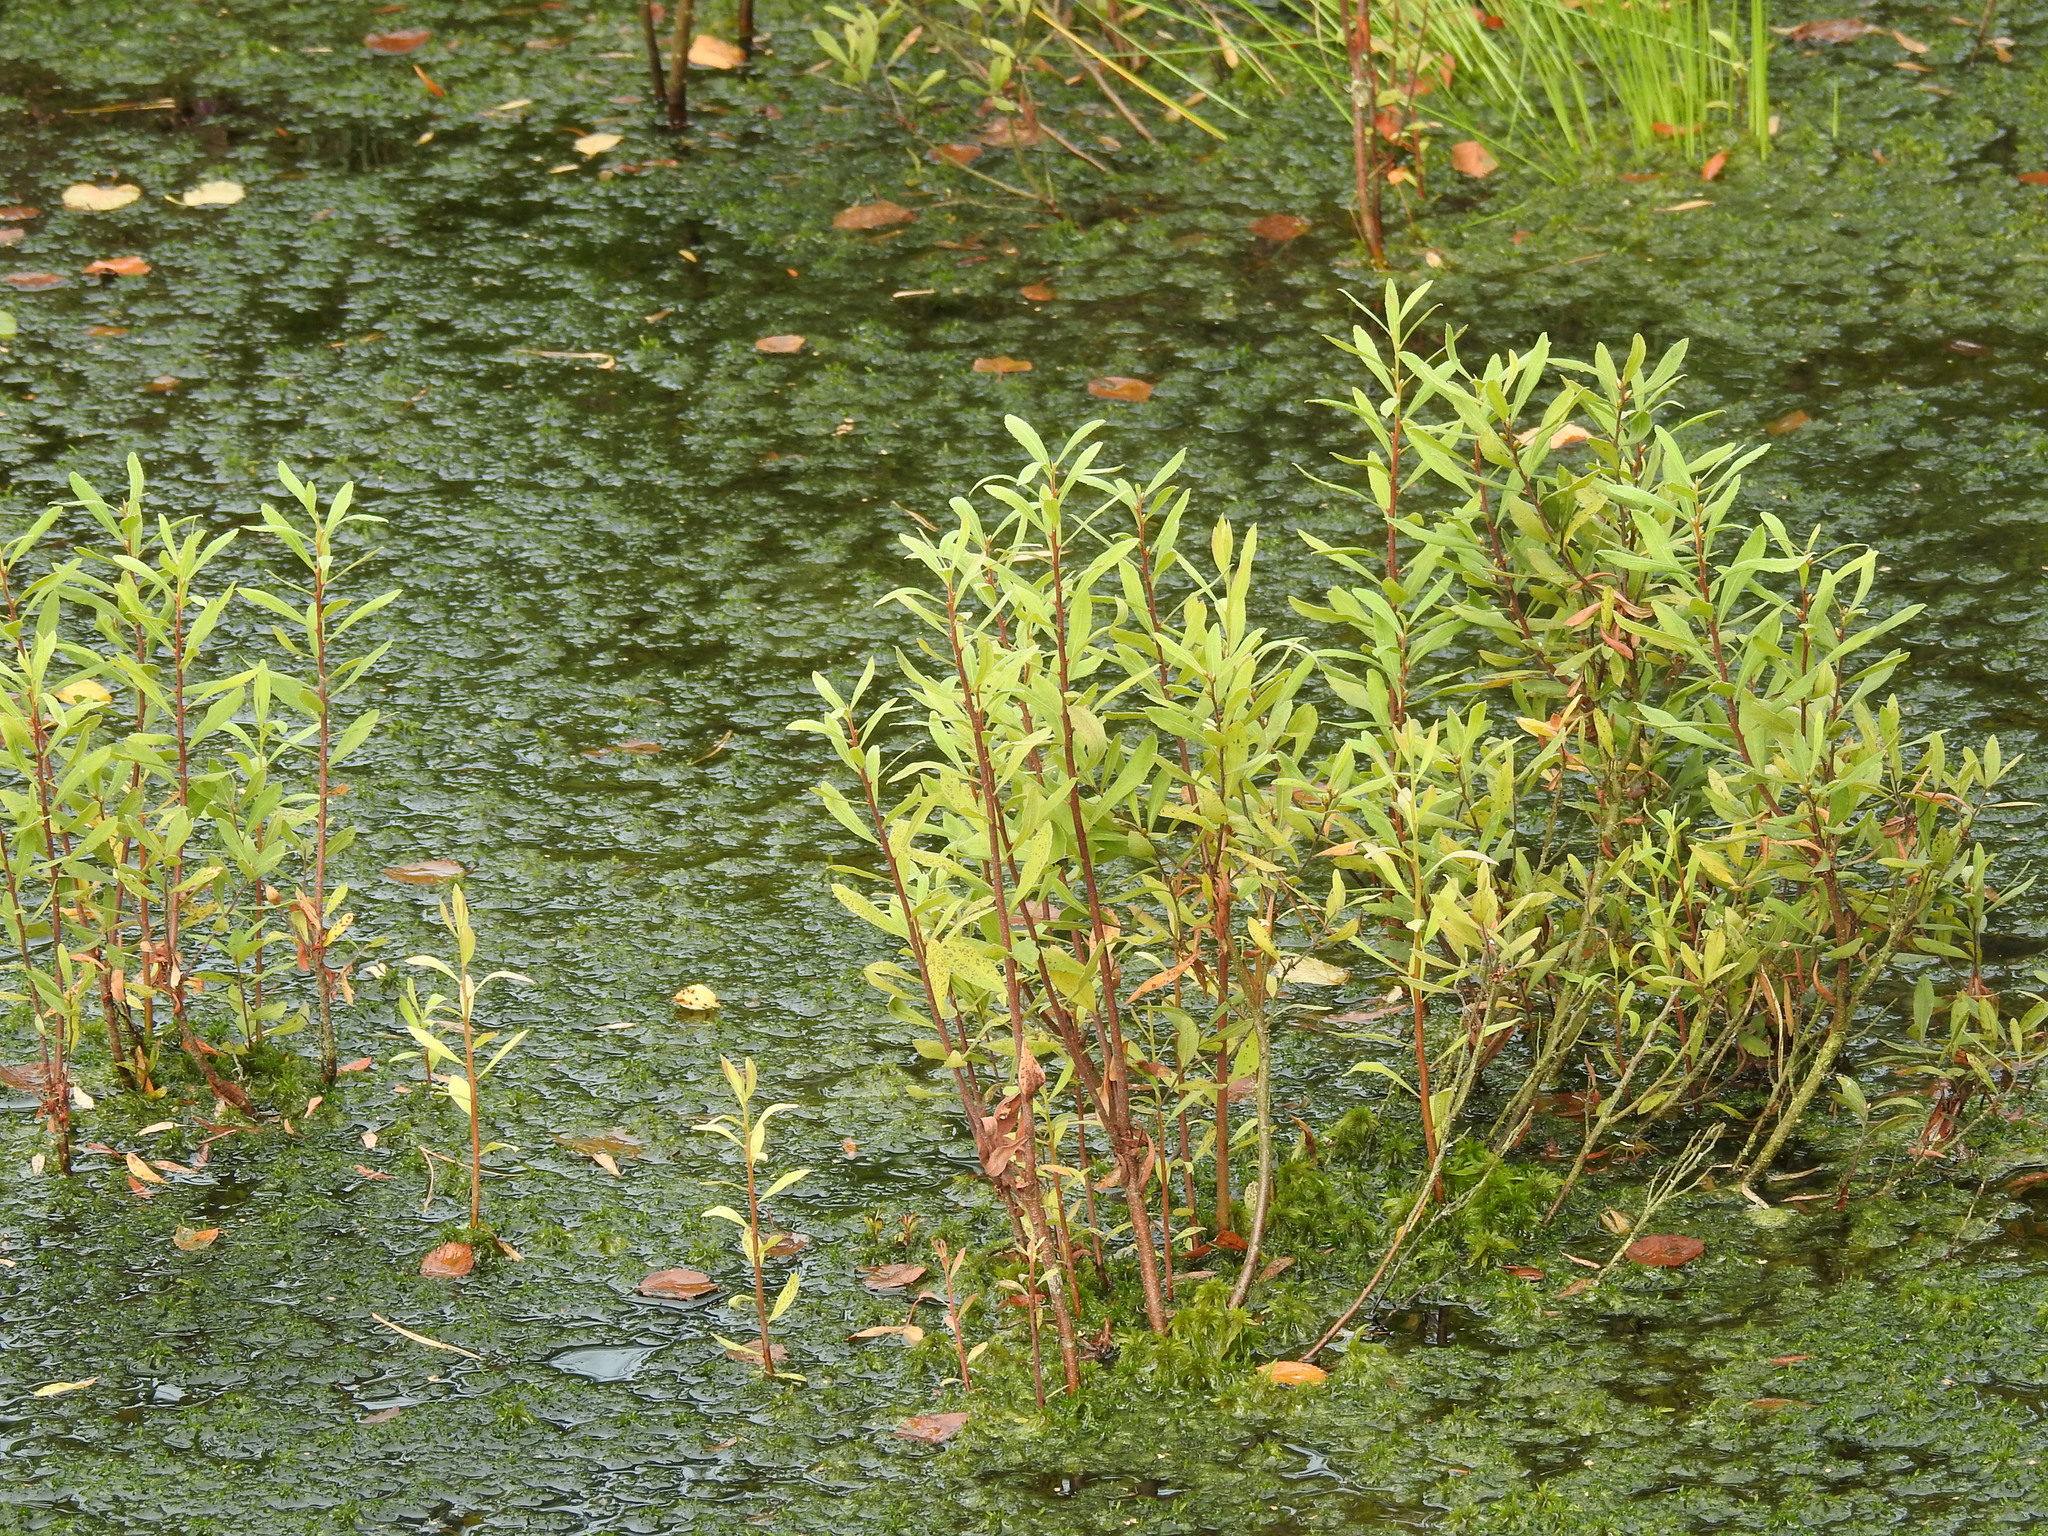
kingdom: Plantae
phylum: Tracheophyta
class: Magnoliopsida
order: Fagales
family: Myricaceae
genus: Myrica
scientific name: Myrica gale
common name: Sweet gale
